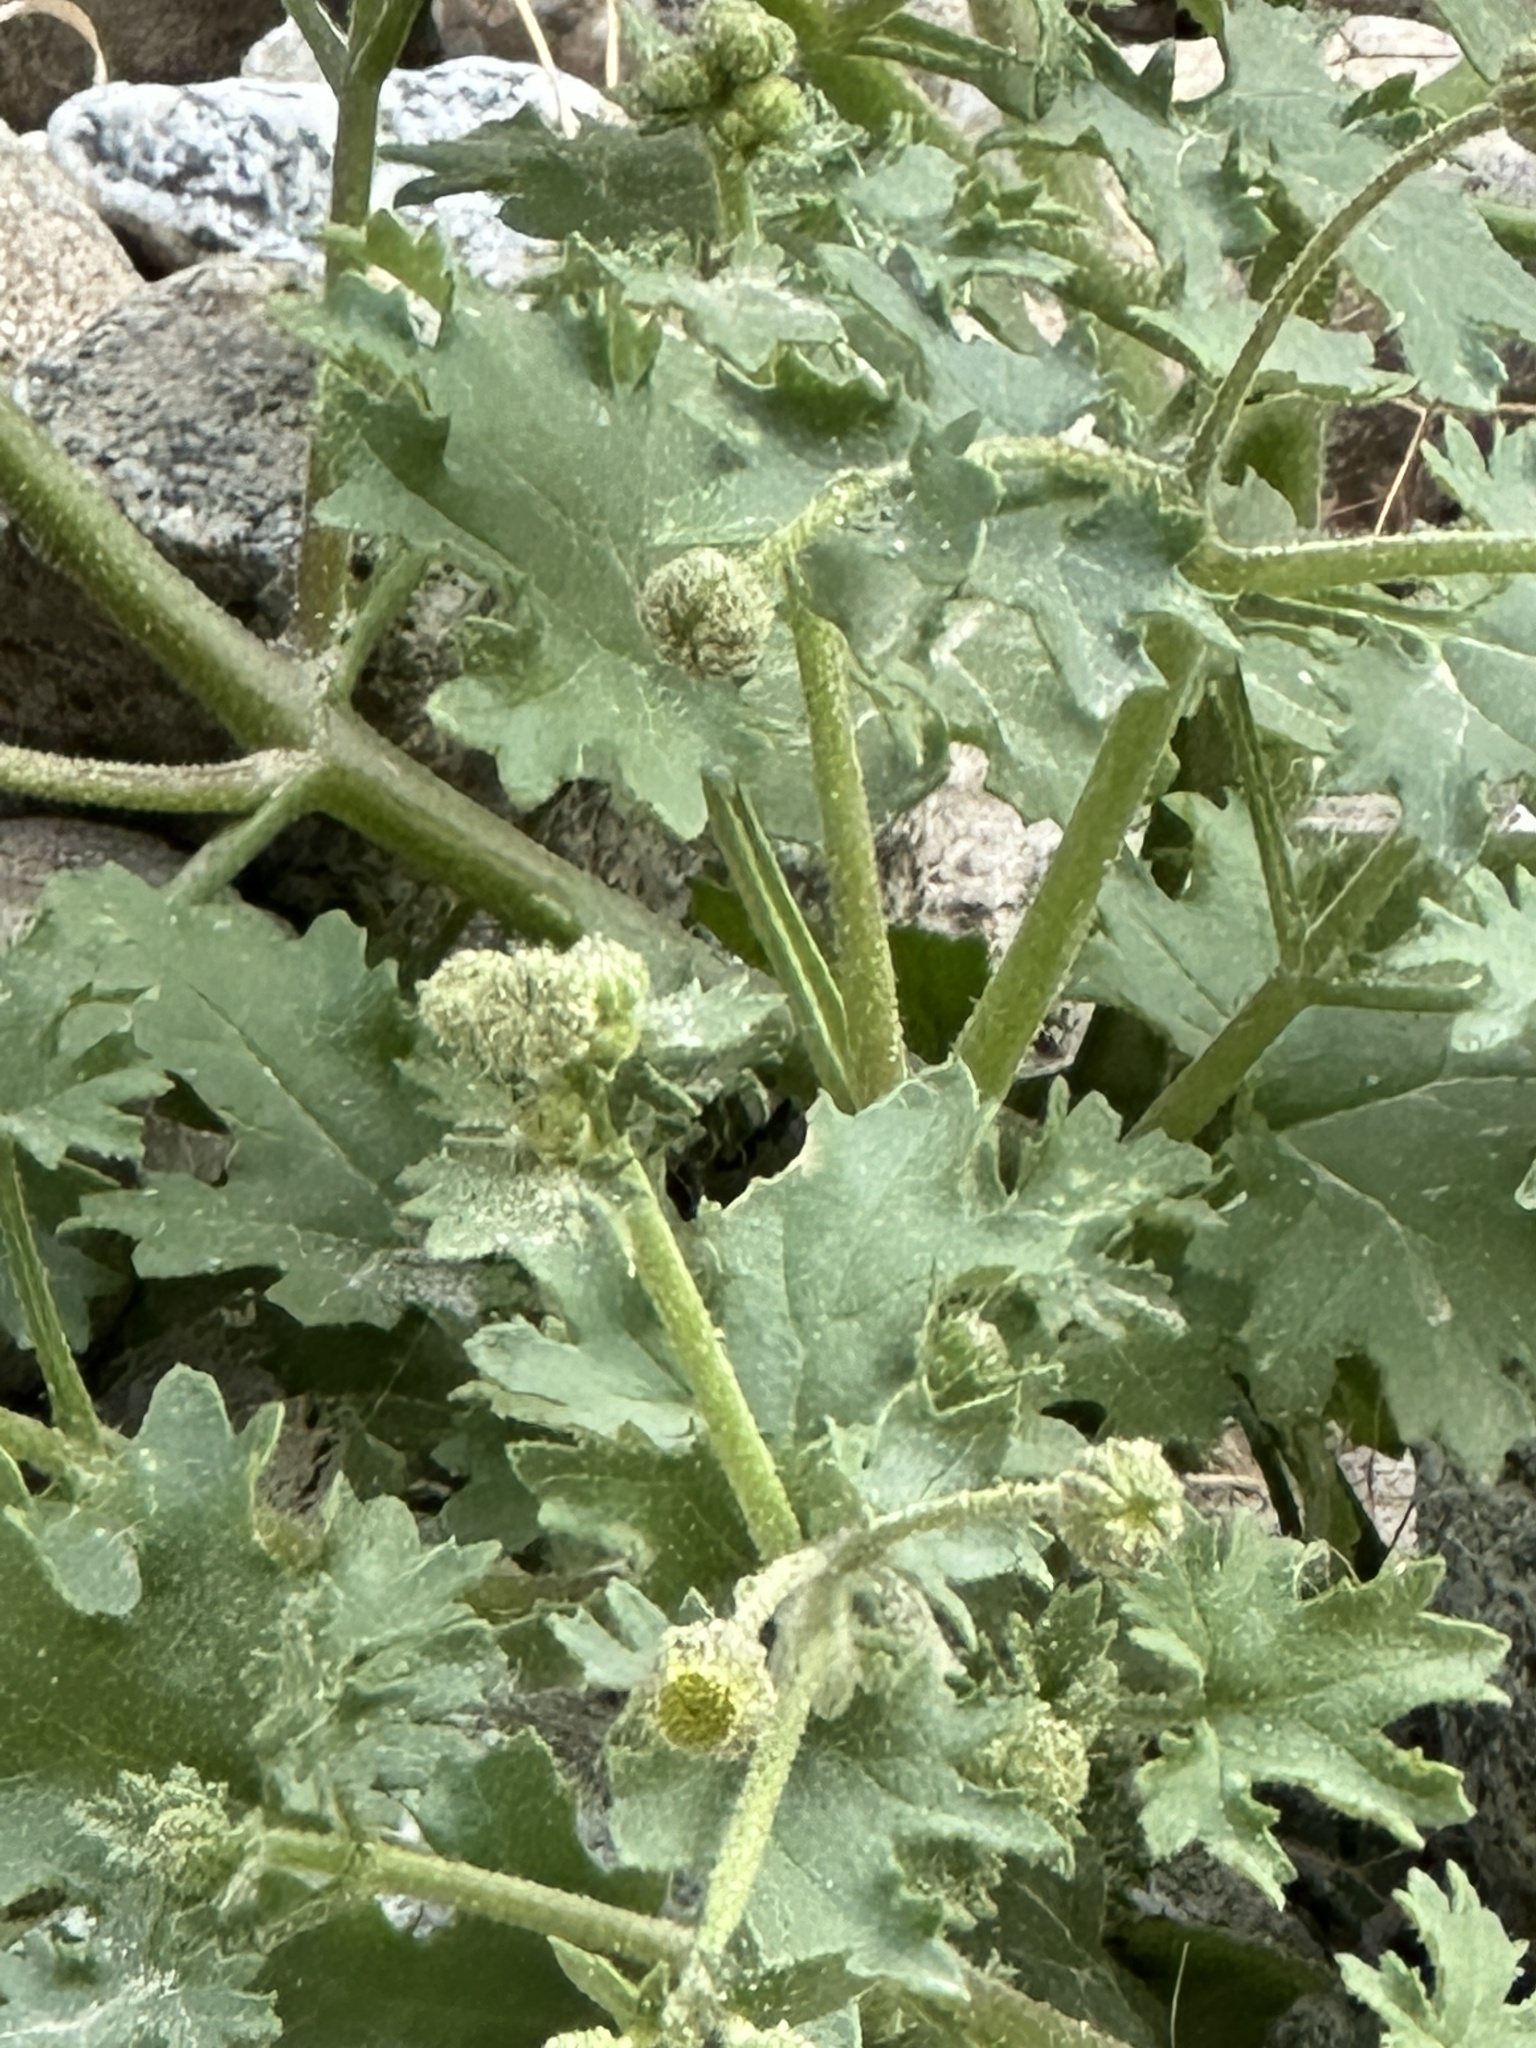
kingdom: Plantae
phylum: Tracheophyta
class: Magnoliopsida
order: Asterales
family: Asteraceae
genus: Laphamia
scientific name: Laphamia emoryi
